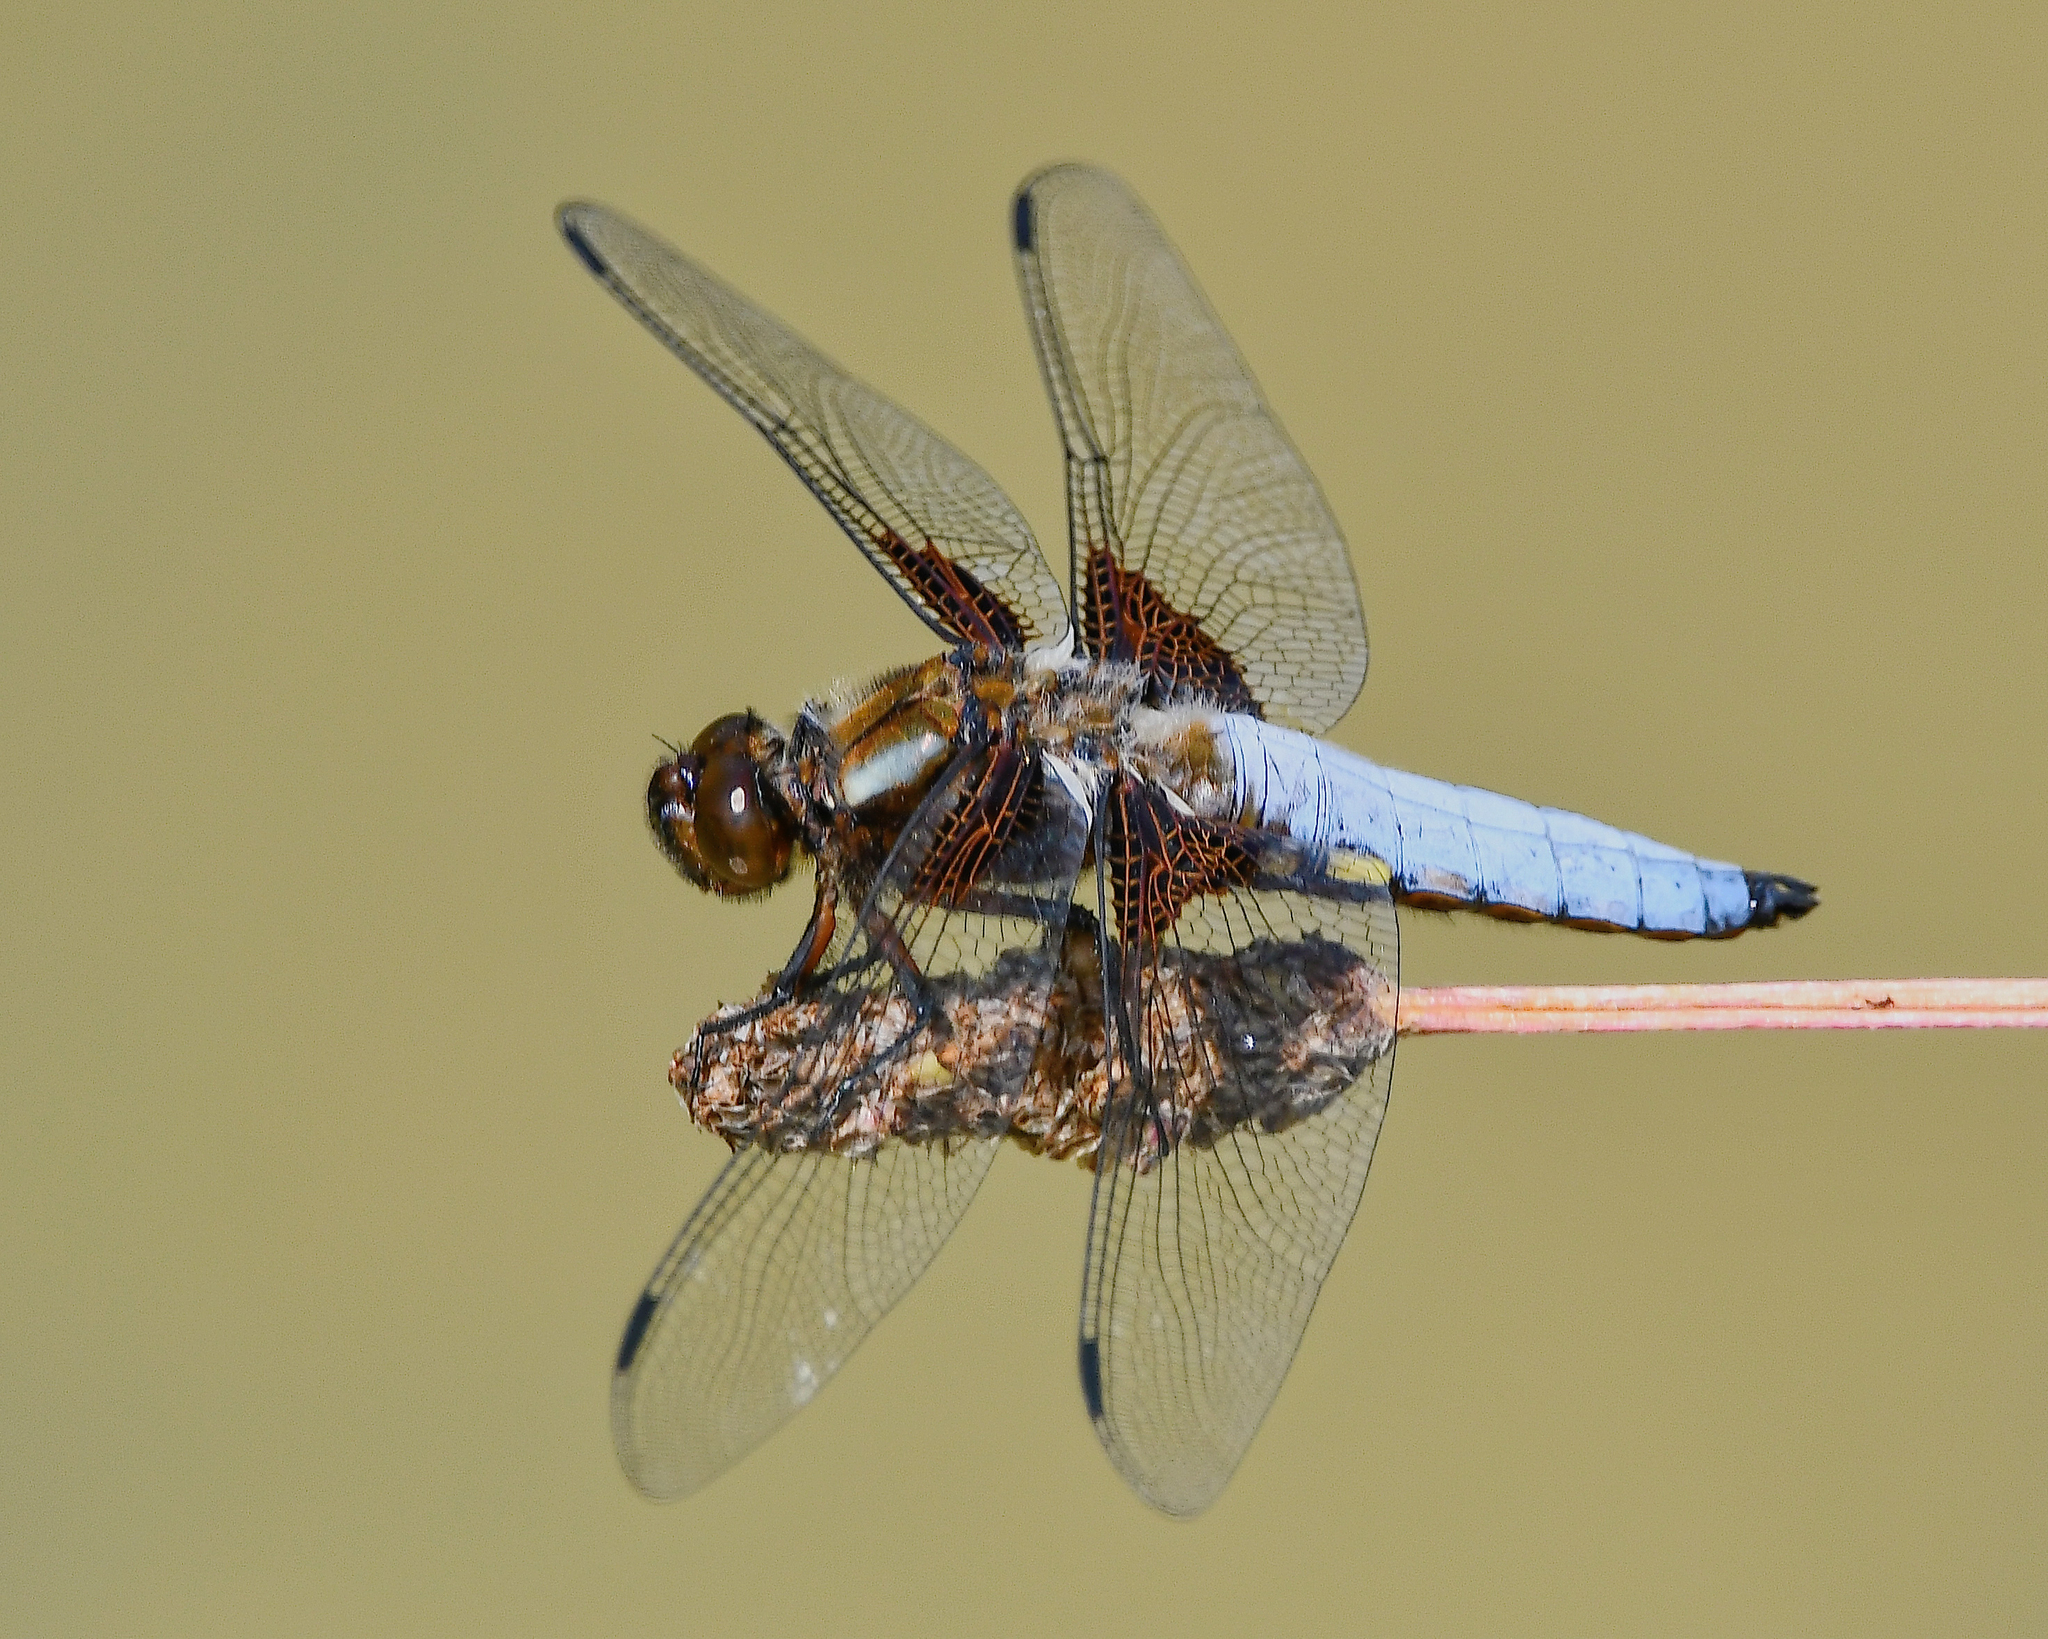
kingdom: Animalia
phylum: Arthropoda
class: Insecta
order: Odonata
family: Libellulidae
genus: Libellula
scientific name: Libellula depressa
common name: Broad-bodied chaser
